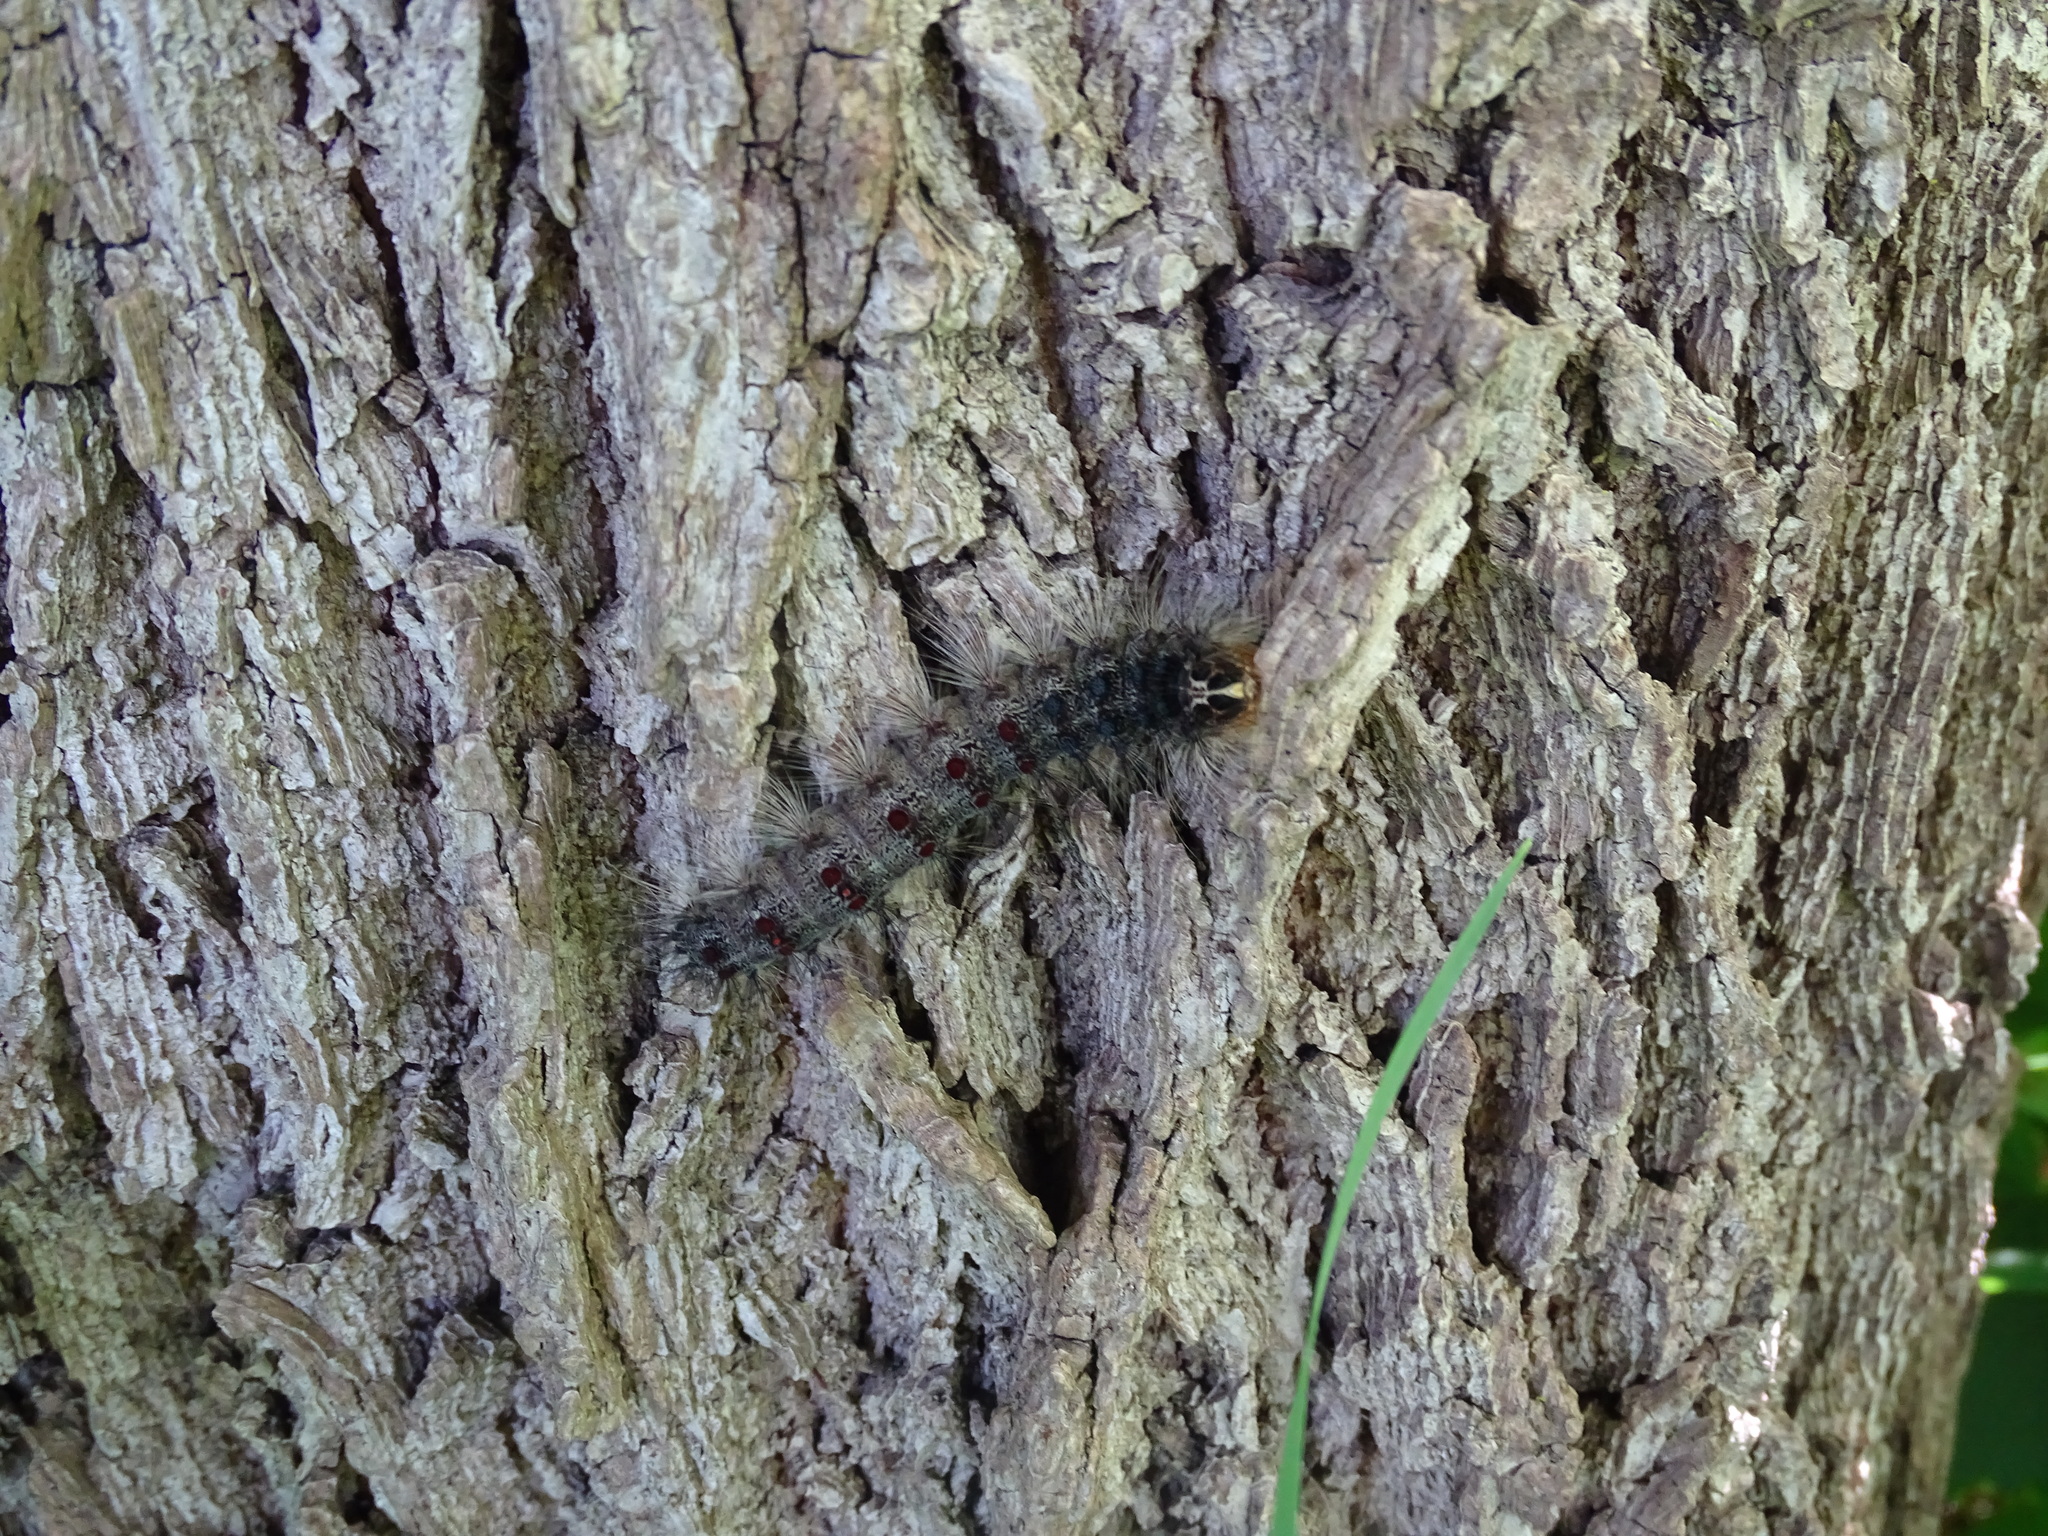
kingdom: Animalia
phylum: Arthropoda
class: Insecta
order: Lepidoptera
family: Erebidae
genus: Lymantria
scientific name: Lymantria dispar
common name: Gypsy moth
